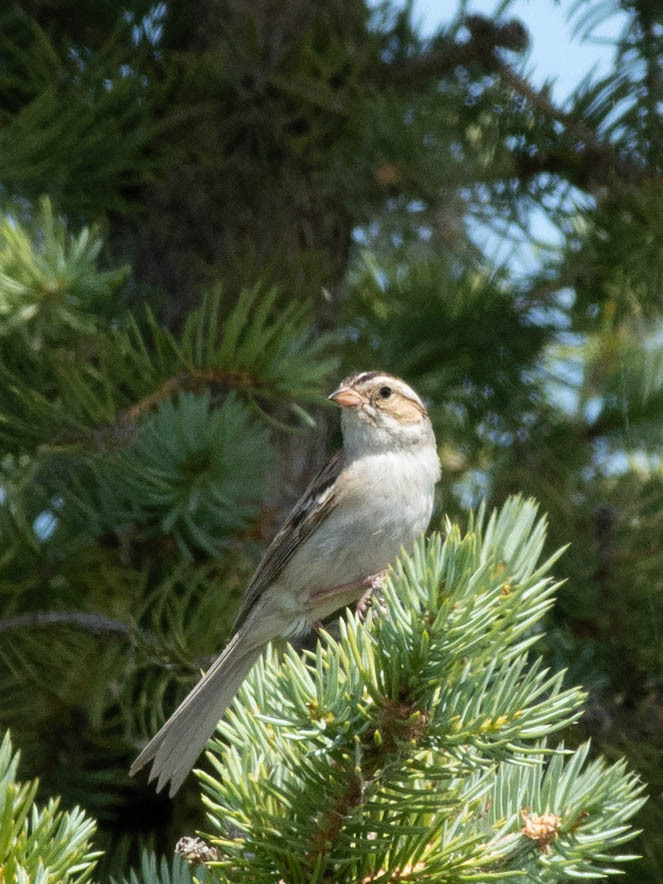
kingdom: Animalia
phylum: Chordata
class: Aves
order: Passeriformes
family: Passerellidae
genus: Spizella
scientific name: Spizella pallida
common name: Clay-colored sparrow
